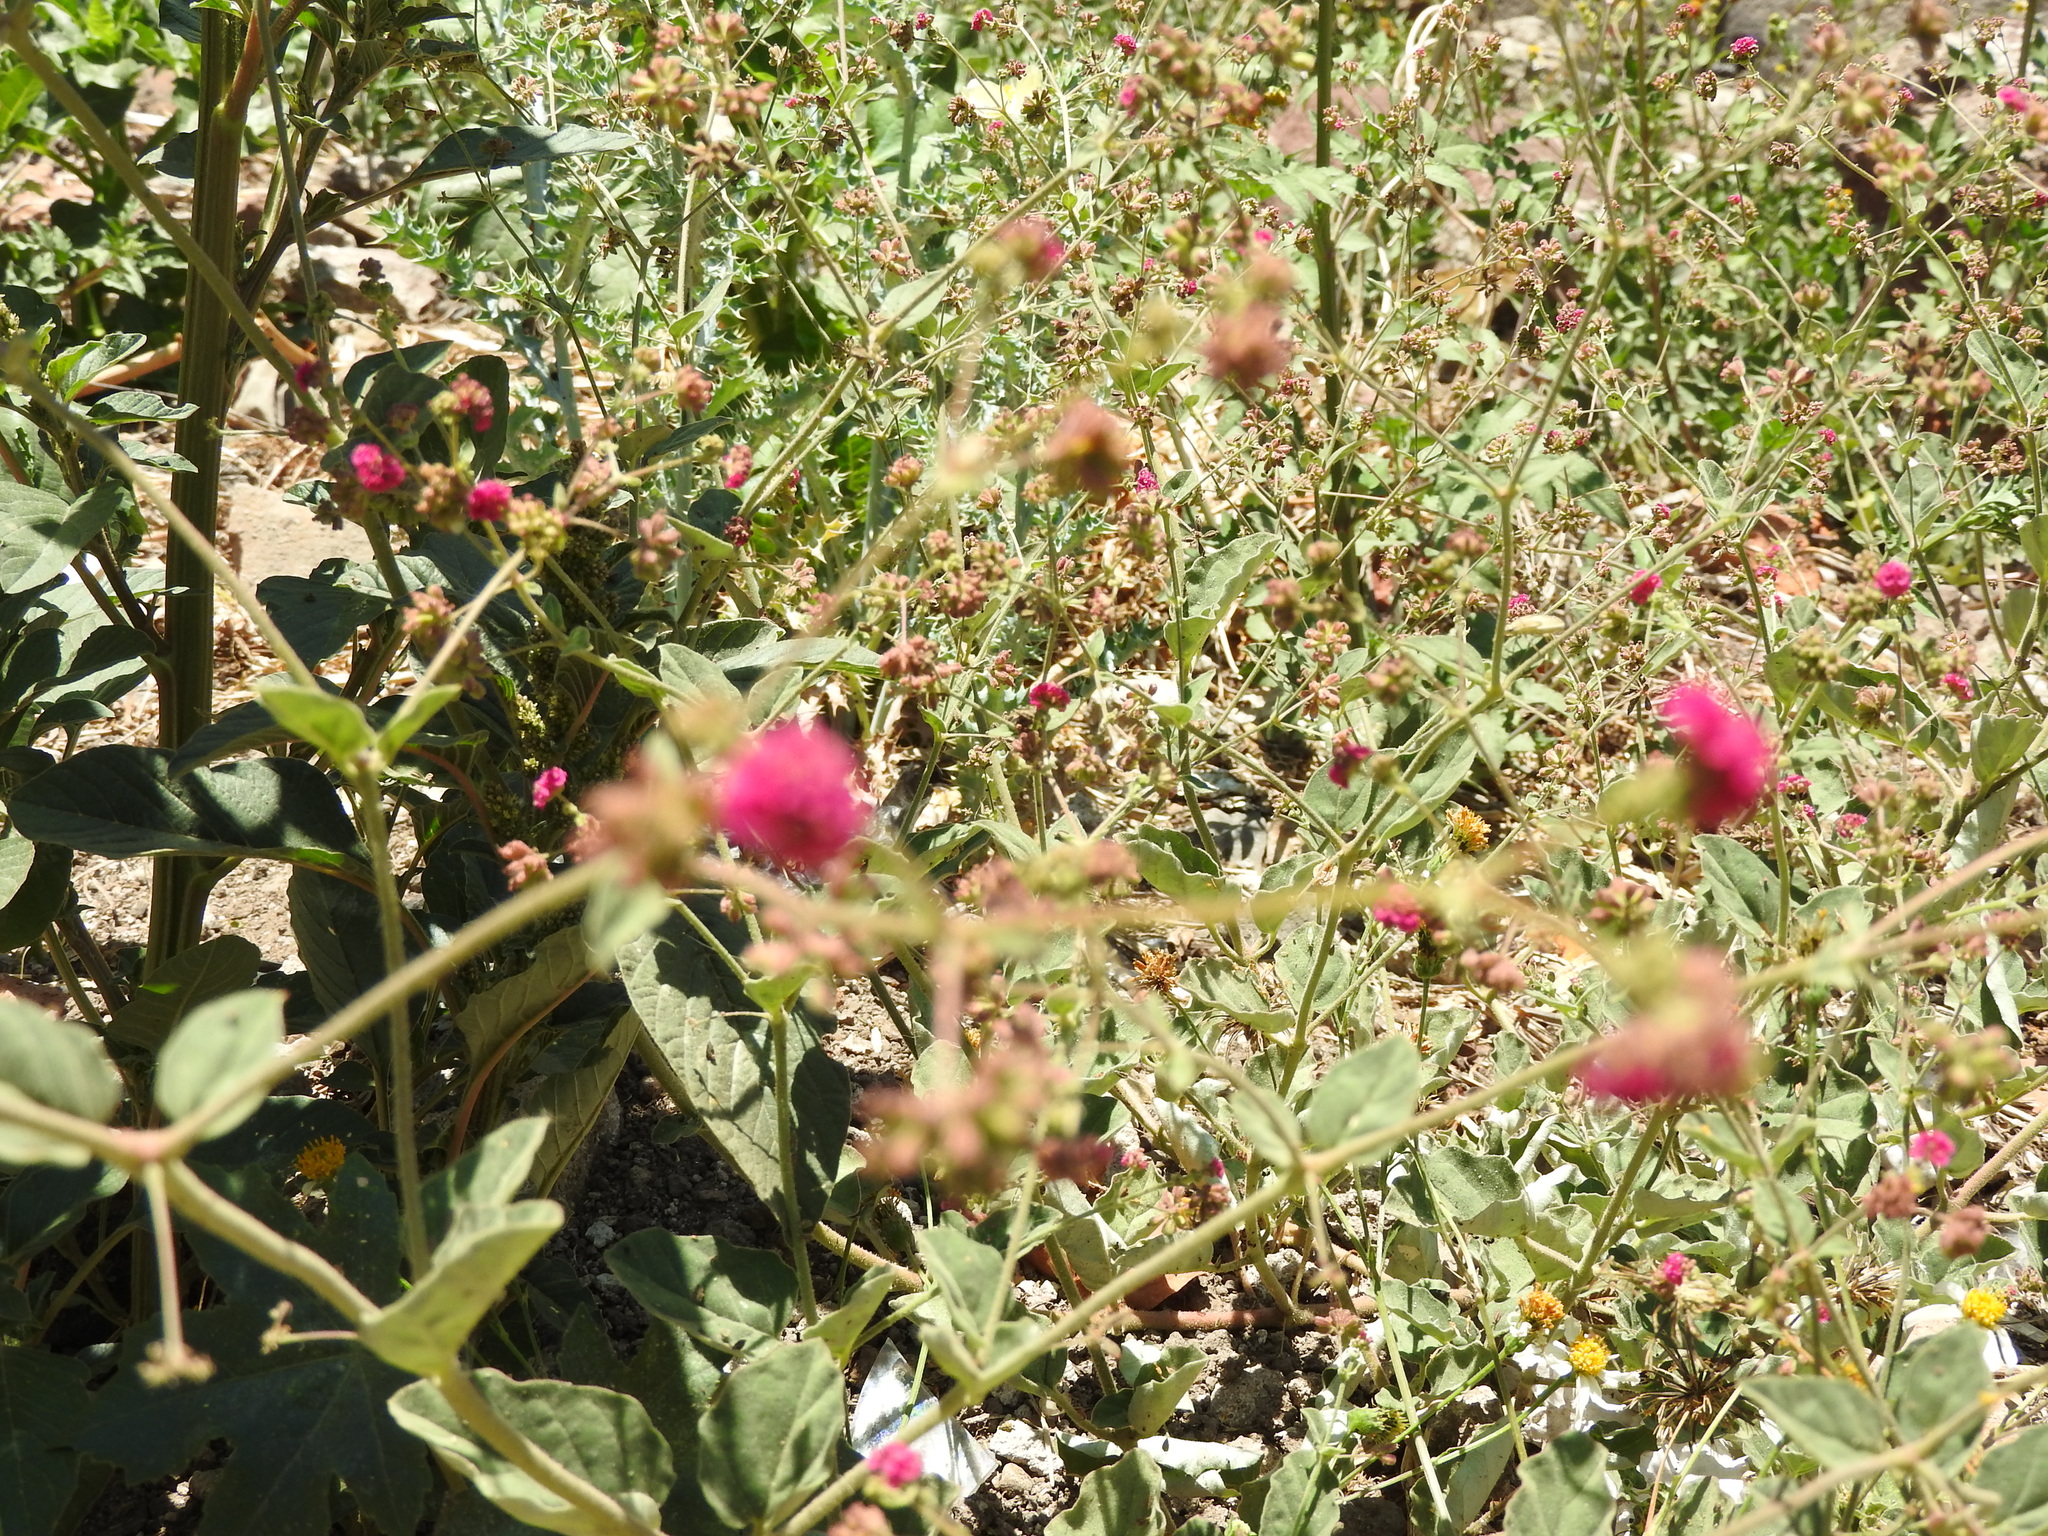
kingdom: Plantae
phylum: Tracheophyta
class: Magnoliopsida
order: Caryophyllales
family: Nyctaginaceae
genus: Boerhavia
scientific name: Boerhavia coccinea
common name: Scarlet spiderling
